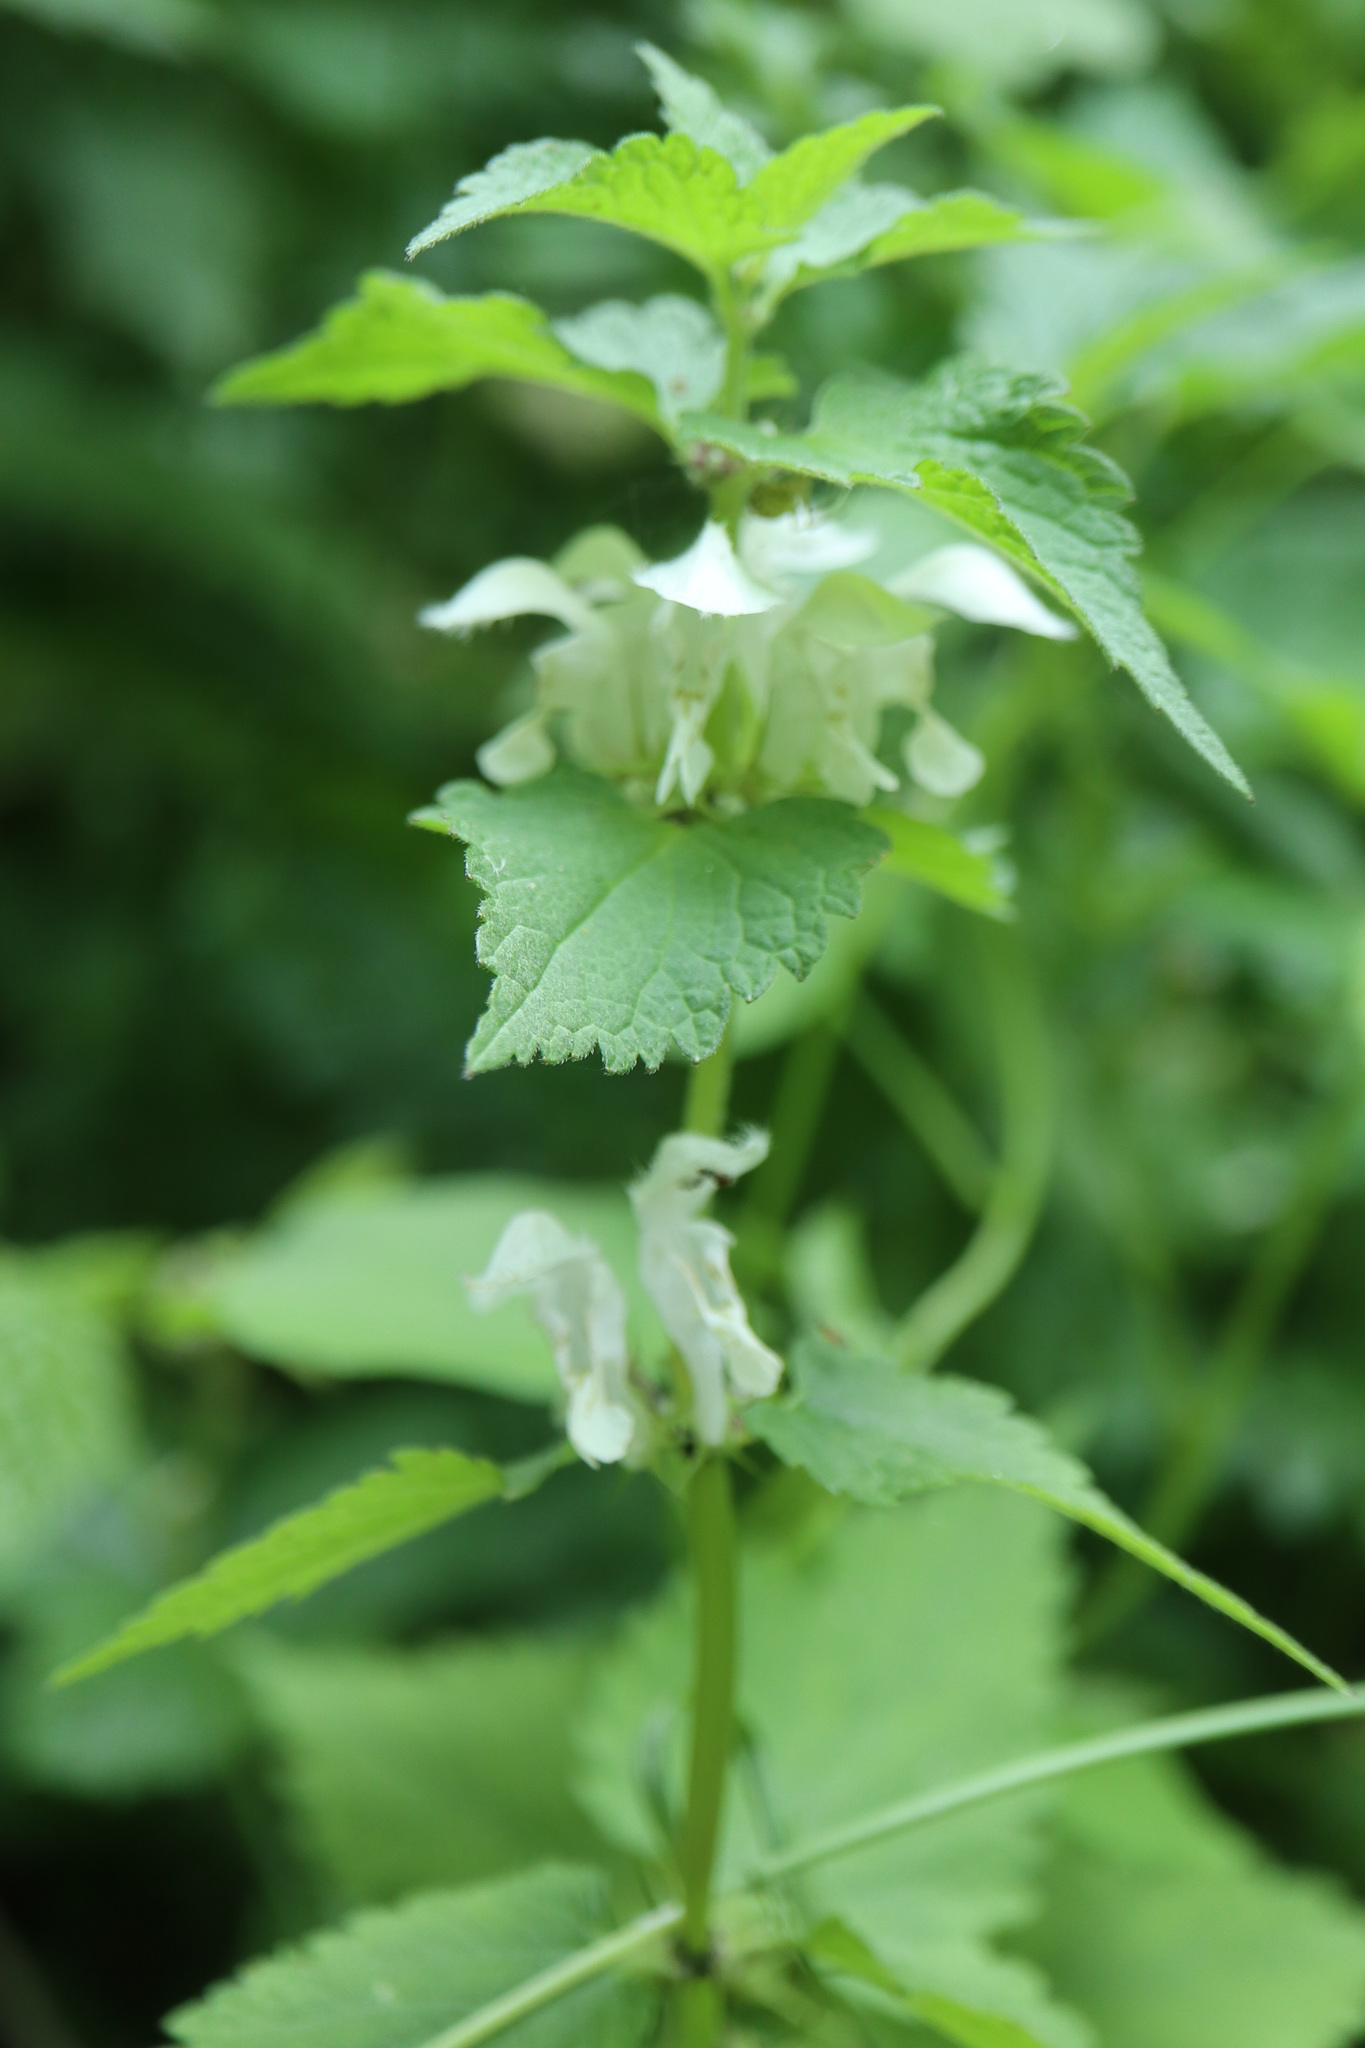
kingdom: Plantae
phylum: Tracheophyta
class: Magnoliopsida
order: Lamiales
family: Lamiaceae
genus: Lamium
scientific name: Lamium album
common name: White dead-nettle
